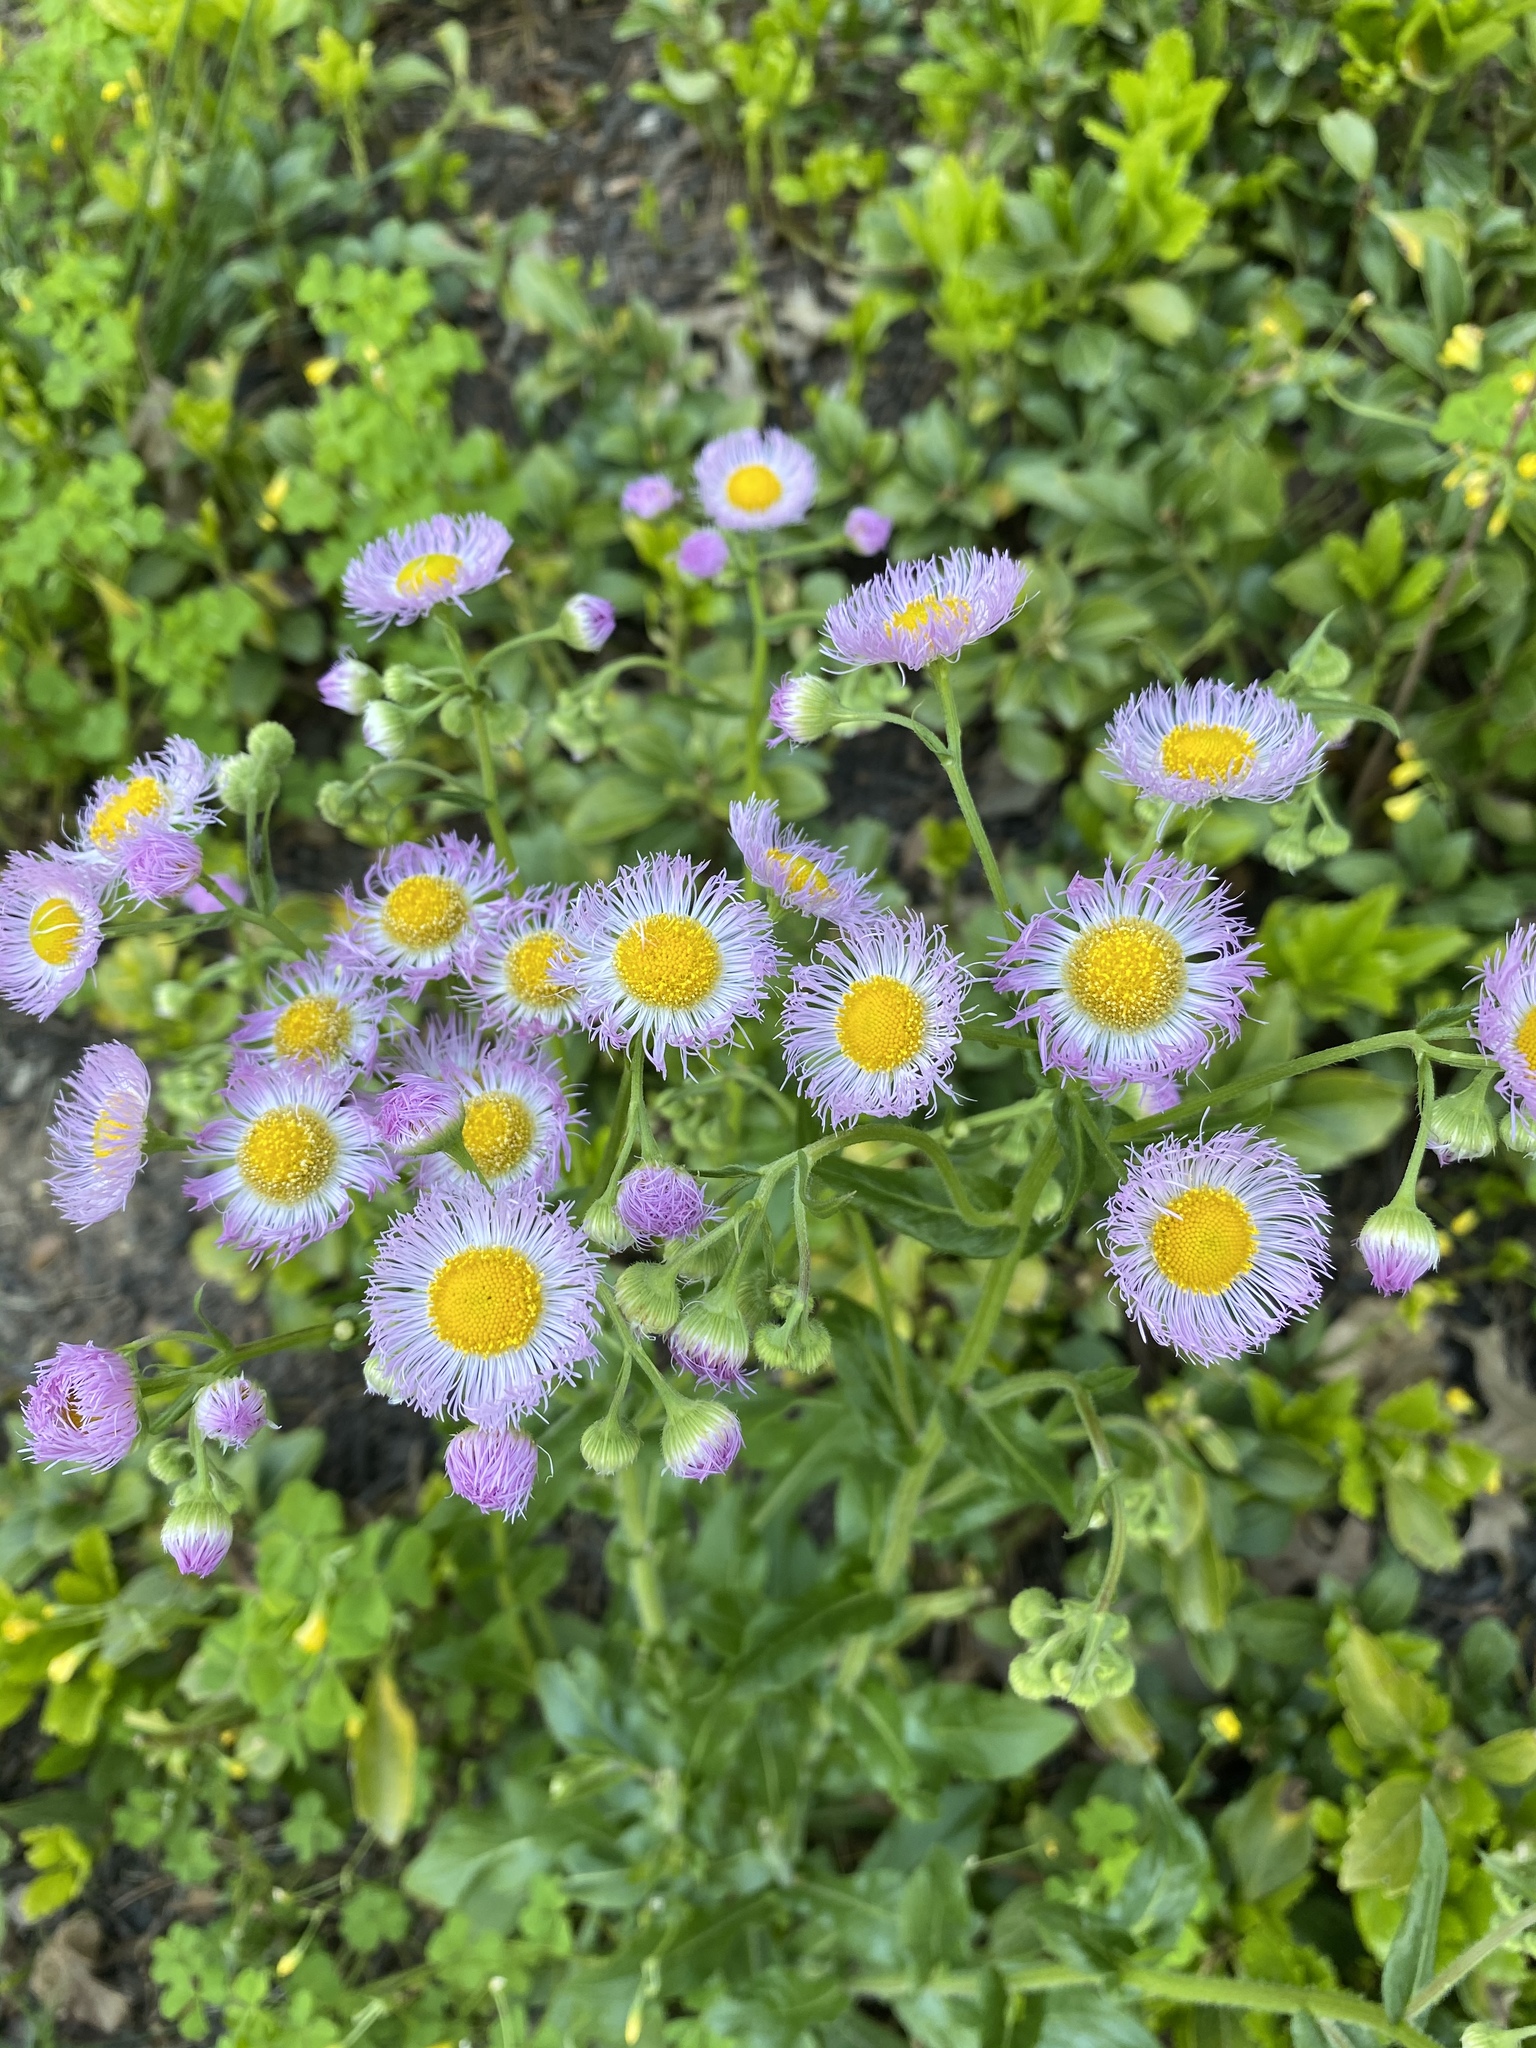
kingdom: Plantae
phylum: Tracheophyta
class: Magnoliopsida
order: Asterales
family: Asteraceae
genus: Erigeron
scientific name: Erigeron philadelphicus
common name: Robin's-plantain
